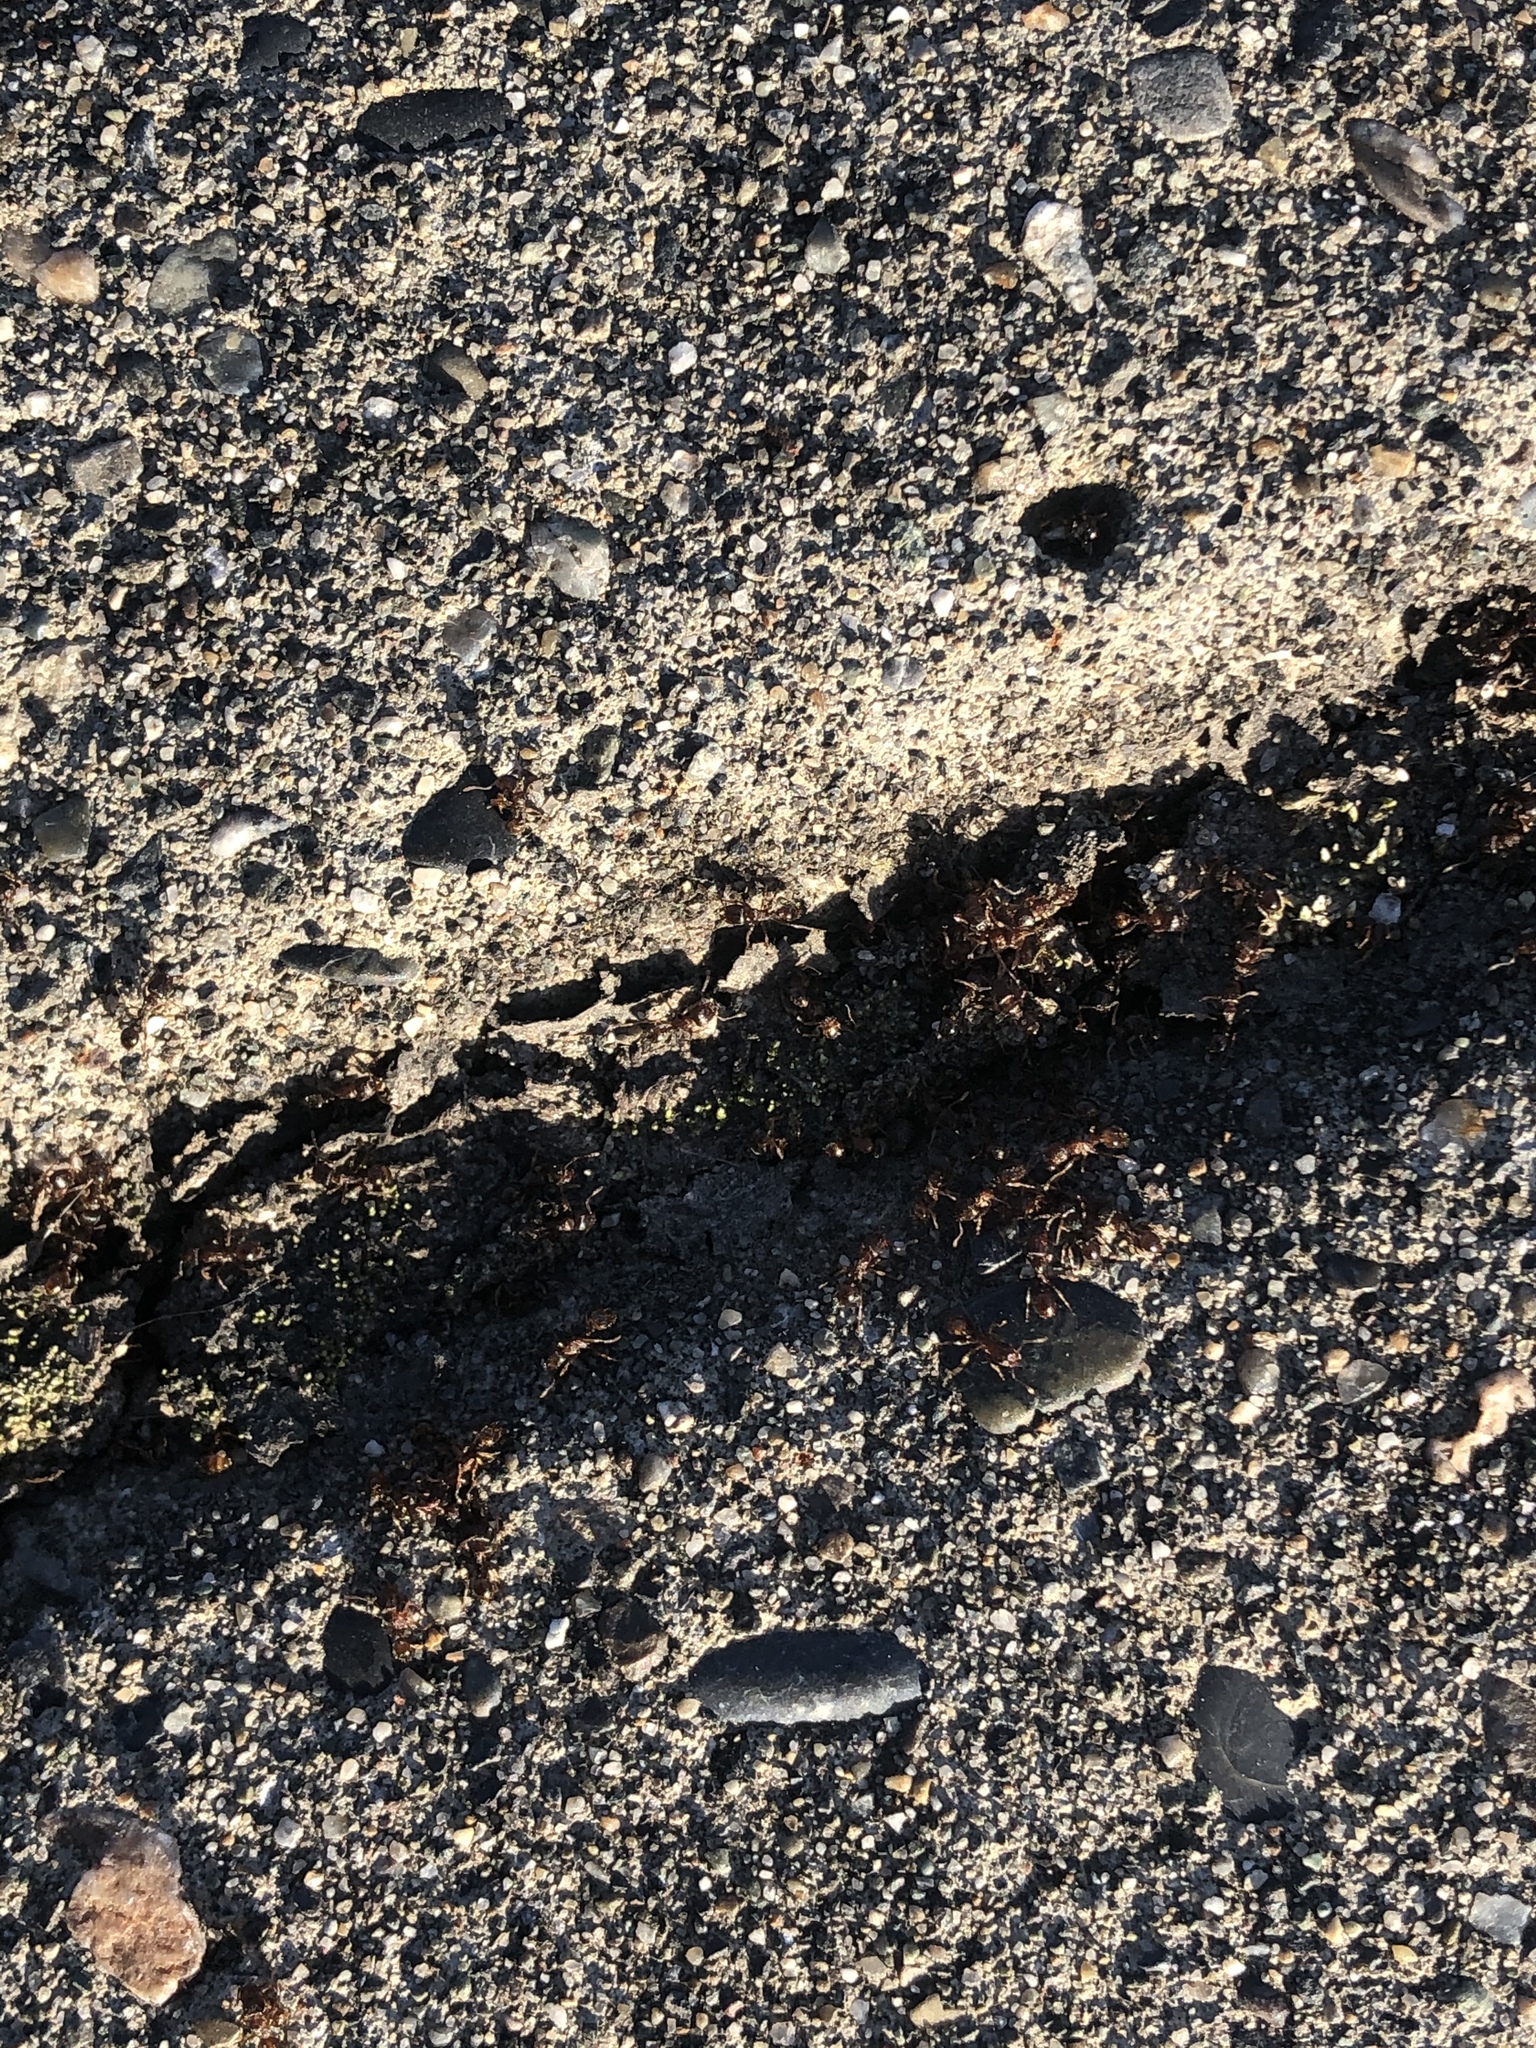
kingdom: Animalia
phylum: Arthropoda
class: Insecta
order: Hymenoptera
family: Formicidae
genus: Tetramorium
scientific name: Tetramorium immigrans
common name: Pavement ant
